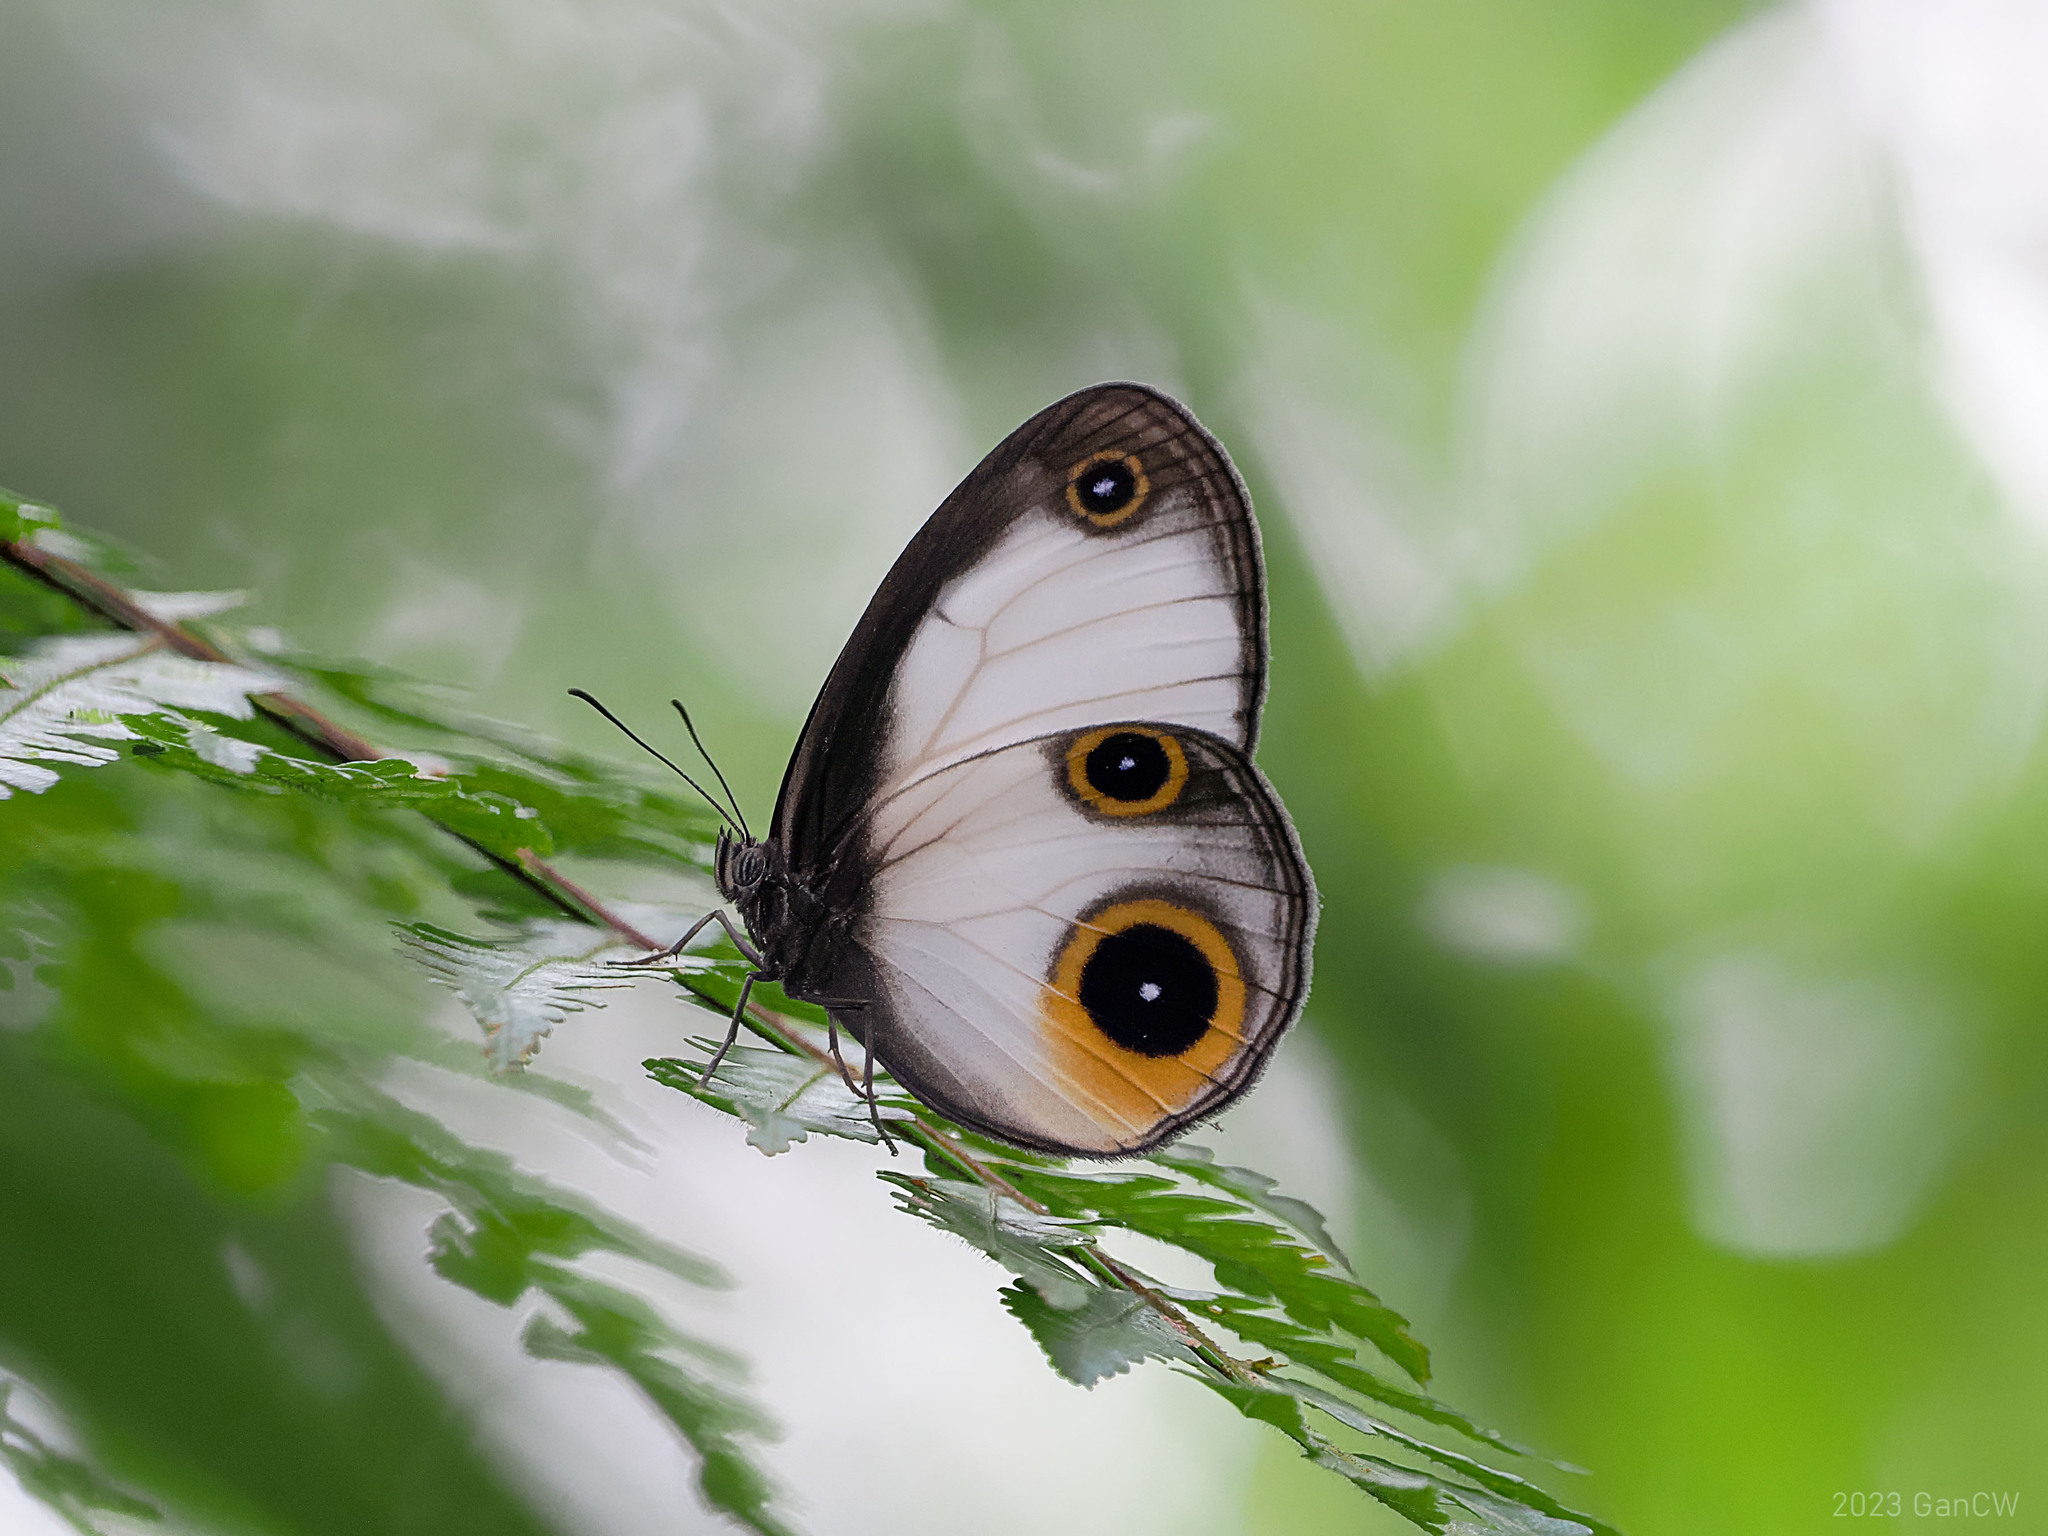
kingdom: Animalia
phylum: Arthropoda
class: Insecta
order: Lepidoptera
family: Nymphalidae
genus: Mycalesis
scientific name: Mycalesis drusillodes
